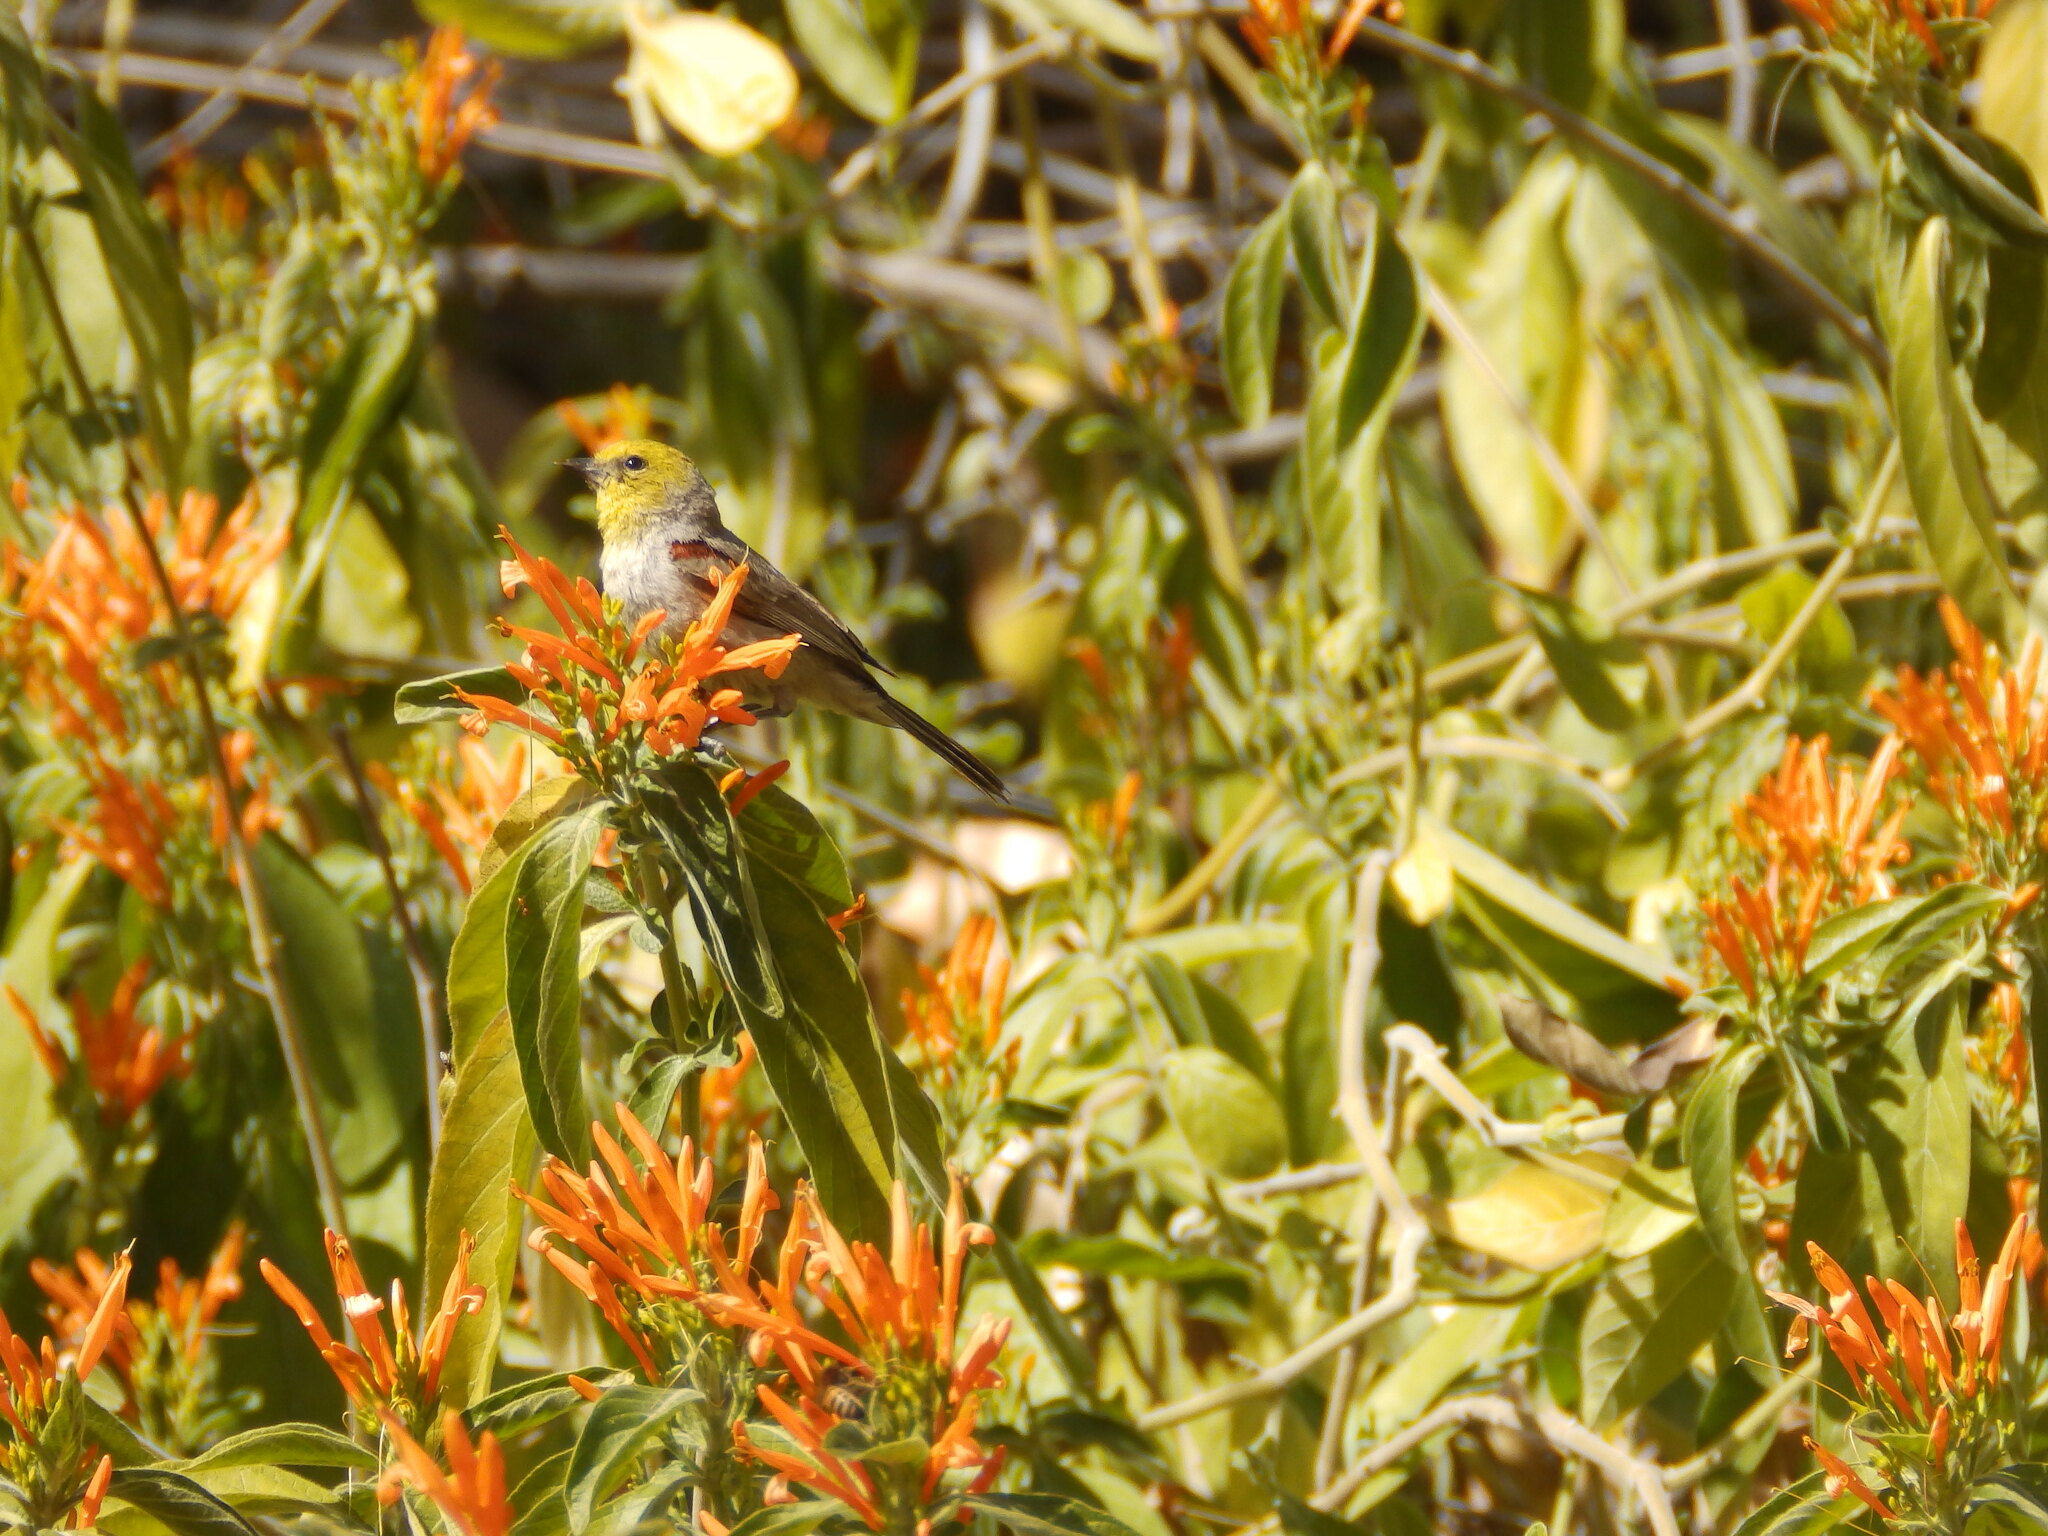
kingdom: Animalia
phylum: Chordata
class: Aves
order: Passeriformes
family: Remizidae
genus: Auriparus
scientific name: Auriparus flaviceps
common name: Verdin
